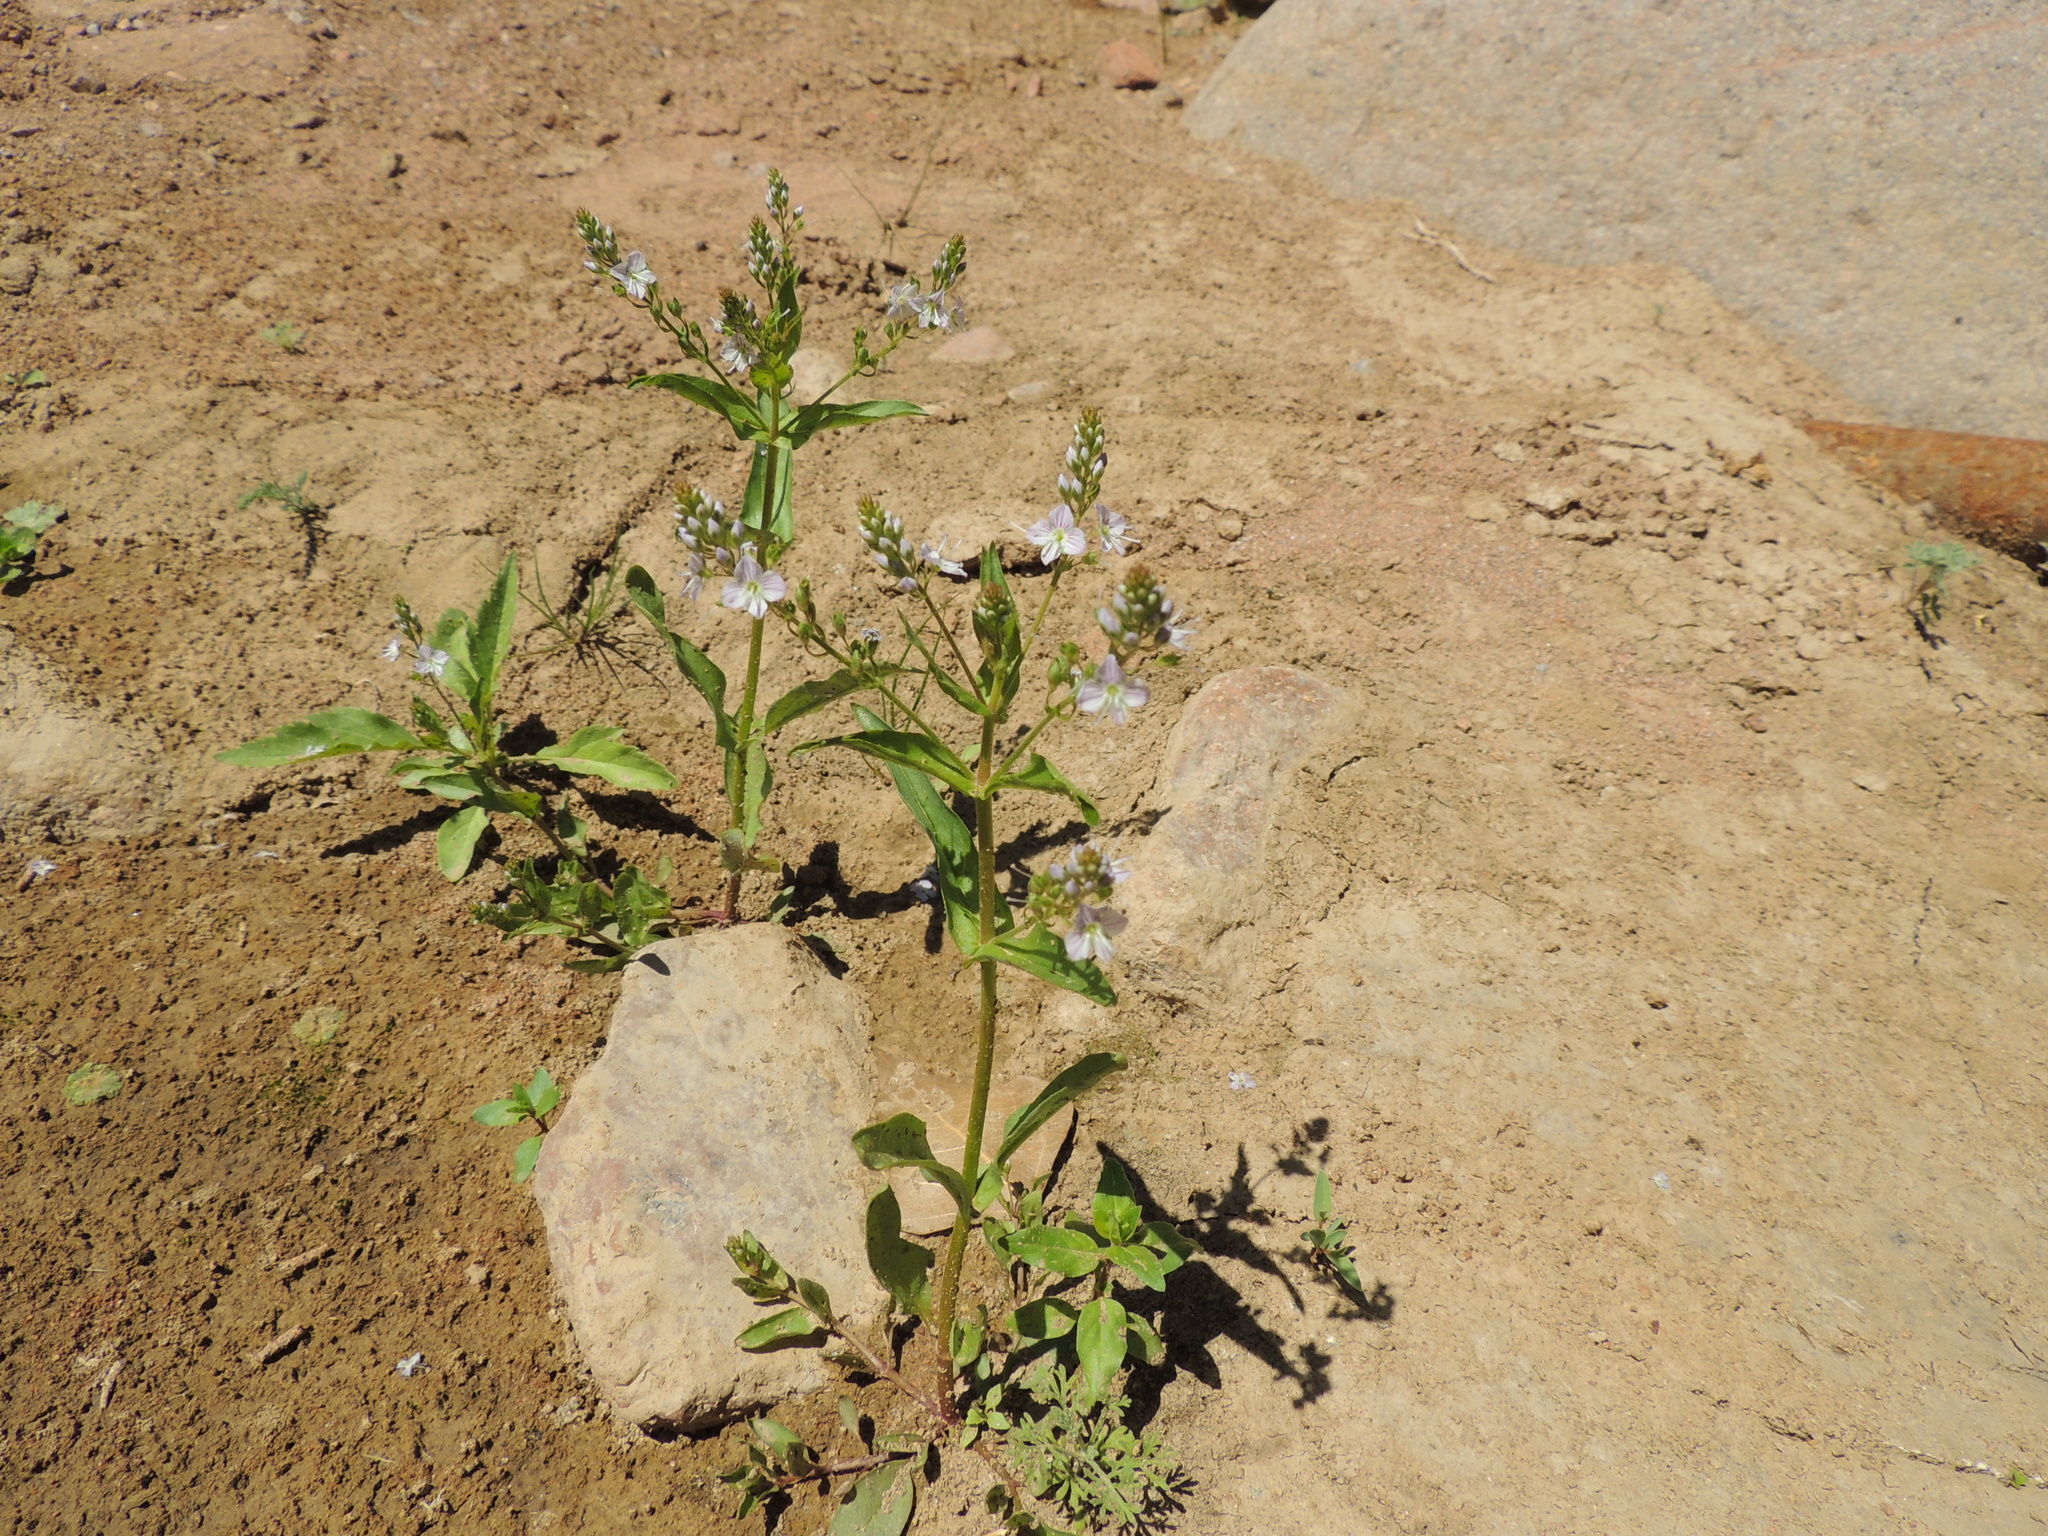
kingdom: Plantae
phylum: Tracheophyta
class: Magnoliopsida
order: Lamiales
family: Plantaginaceae
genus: Veronica
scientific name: Veronica anagallis-aquatica
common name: Water speedwell
